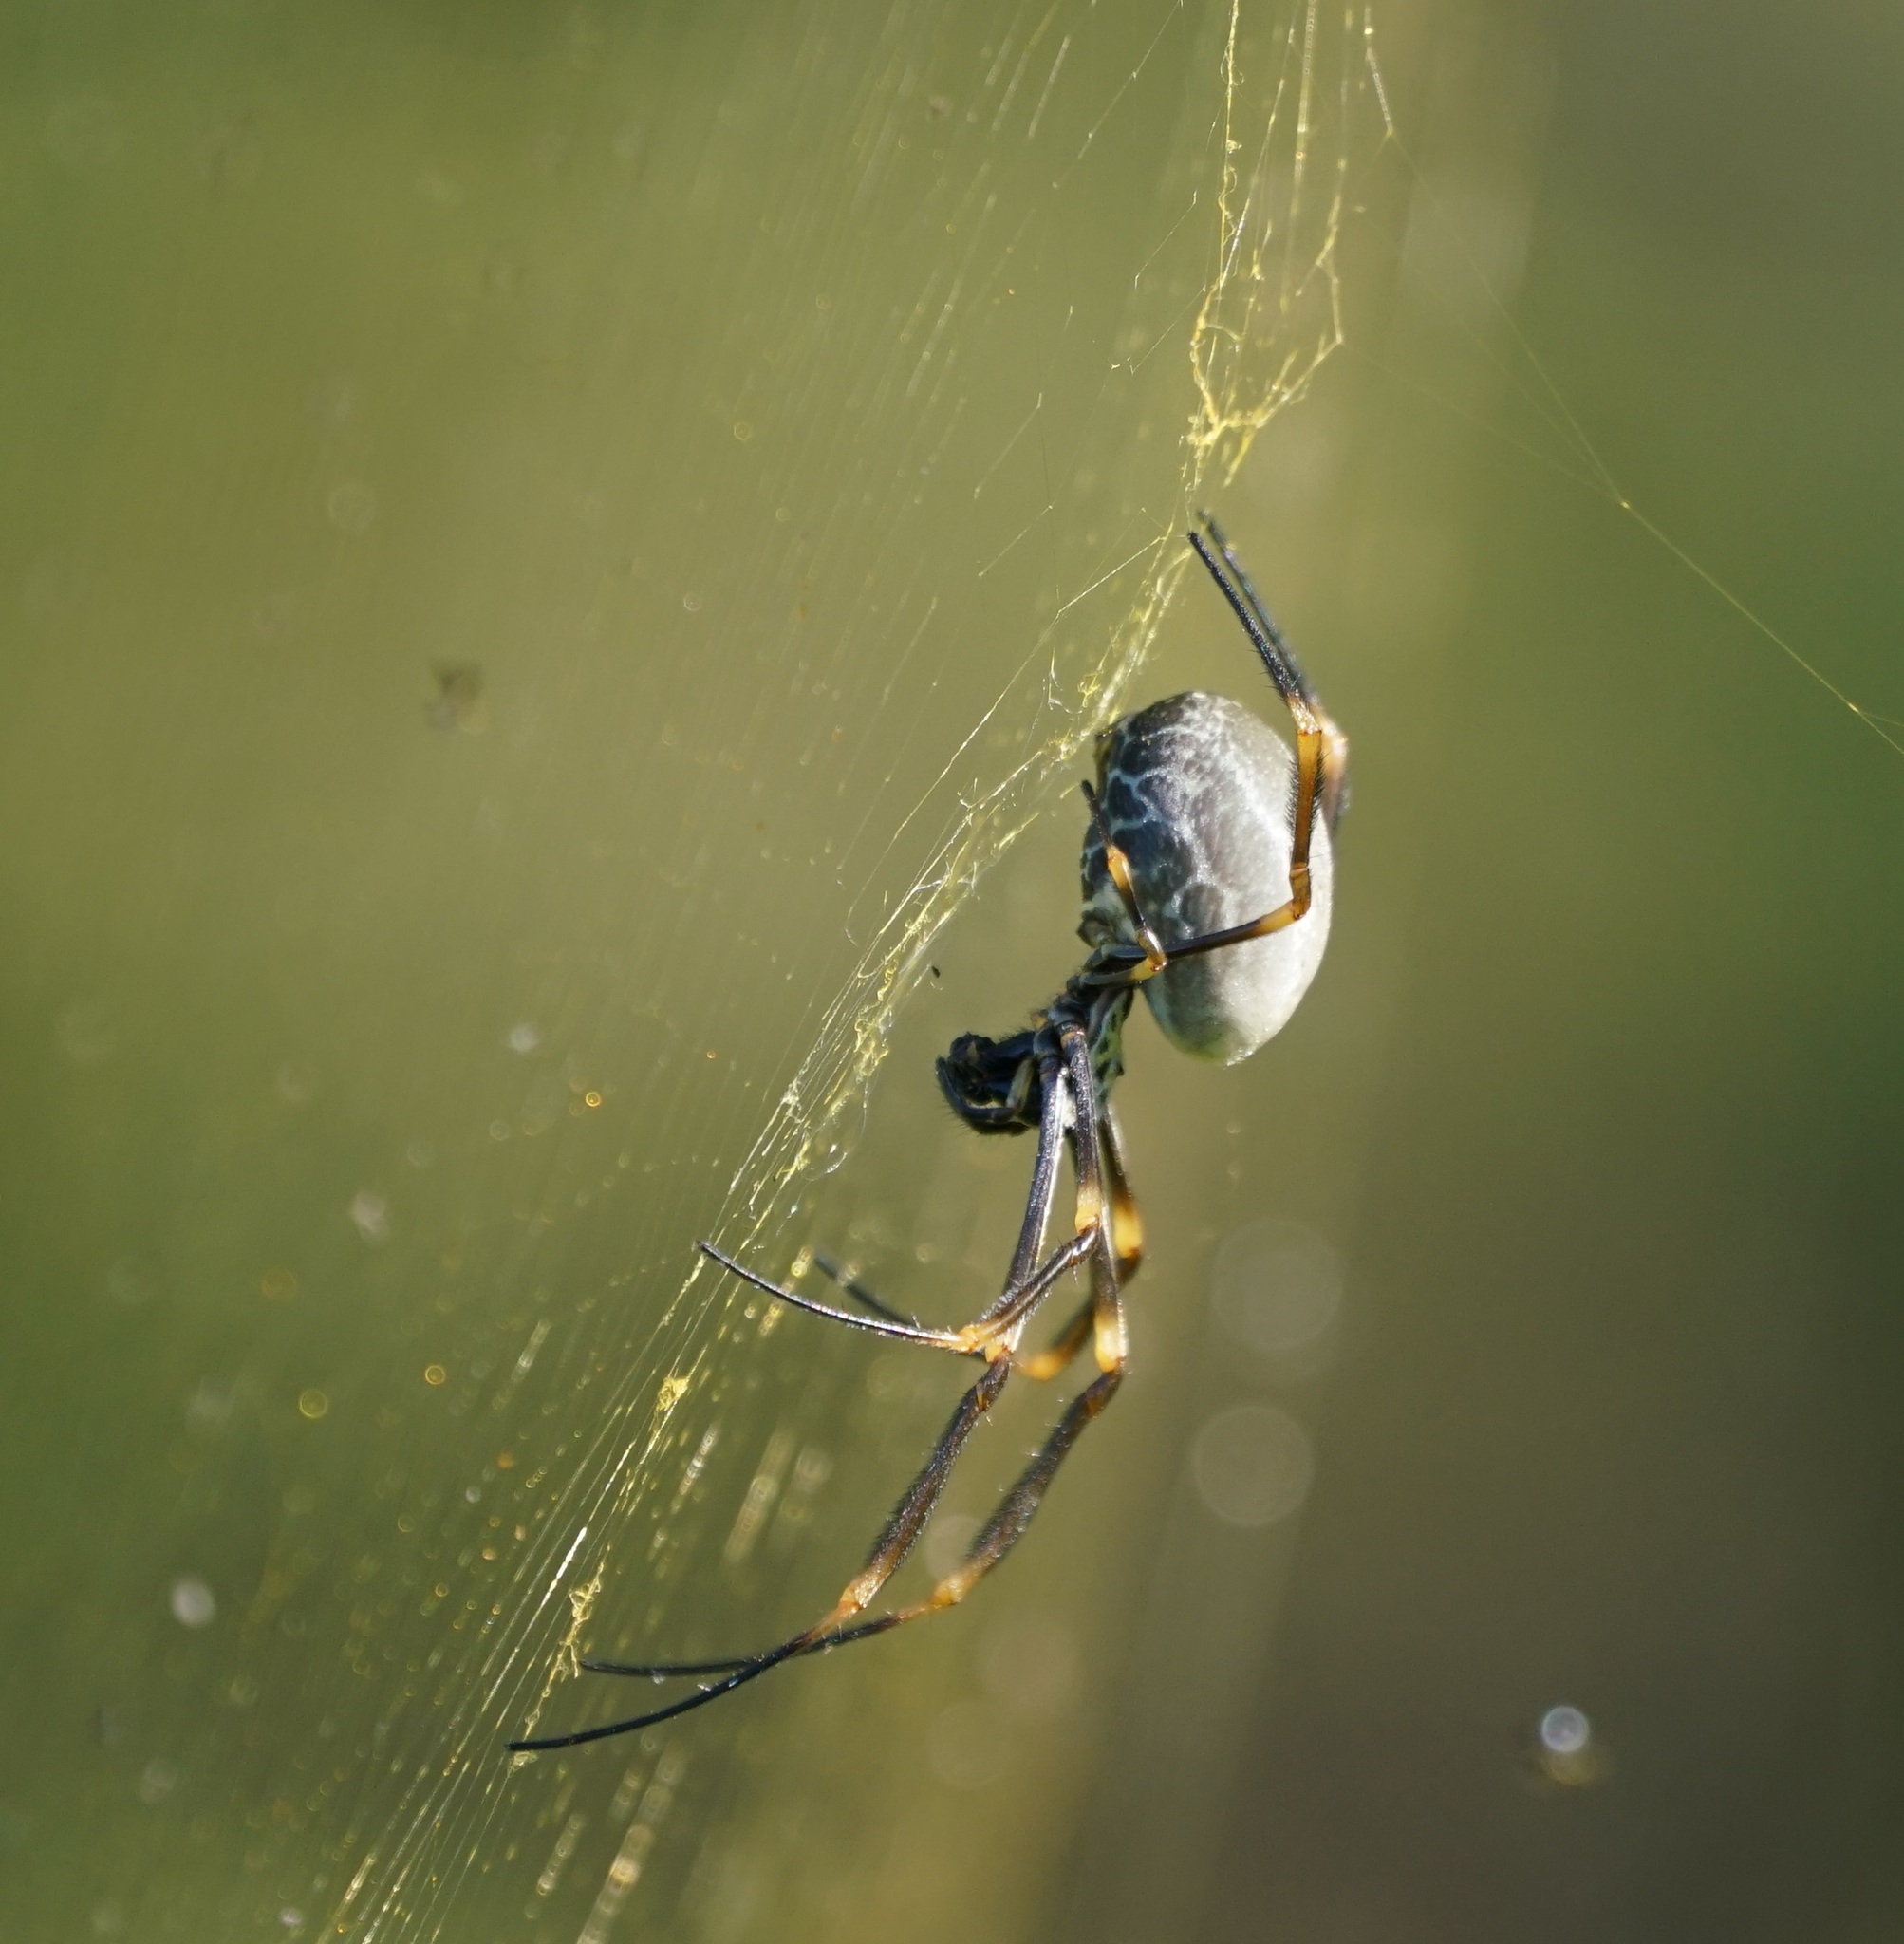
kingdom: Animalia
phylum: Arthropoda
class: Arachnida
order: Araneae
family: Araneidae
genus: Trichonephila
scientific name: Trichonephila plumipes
